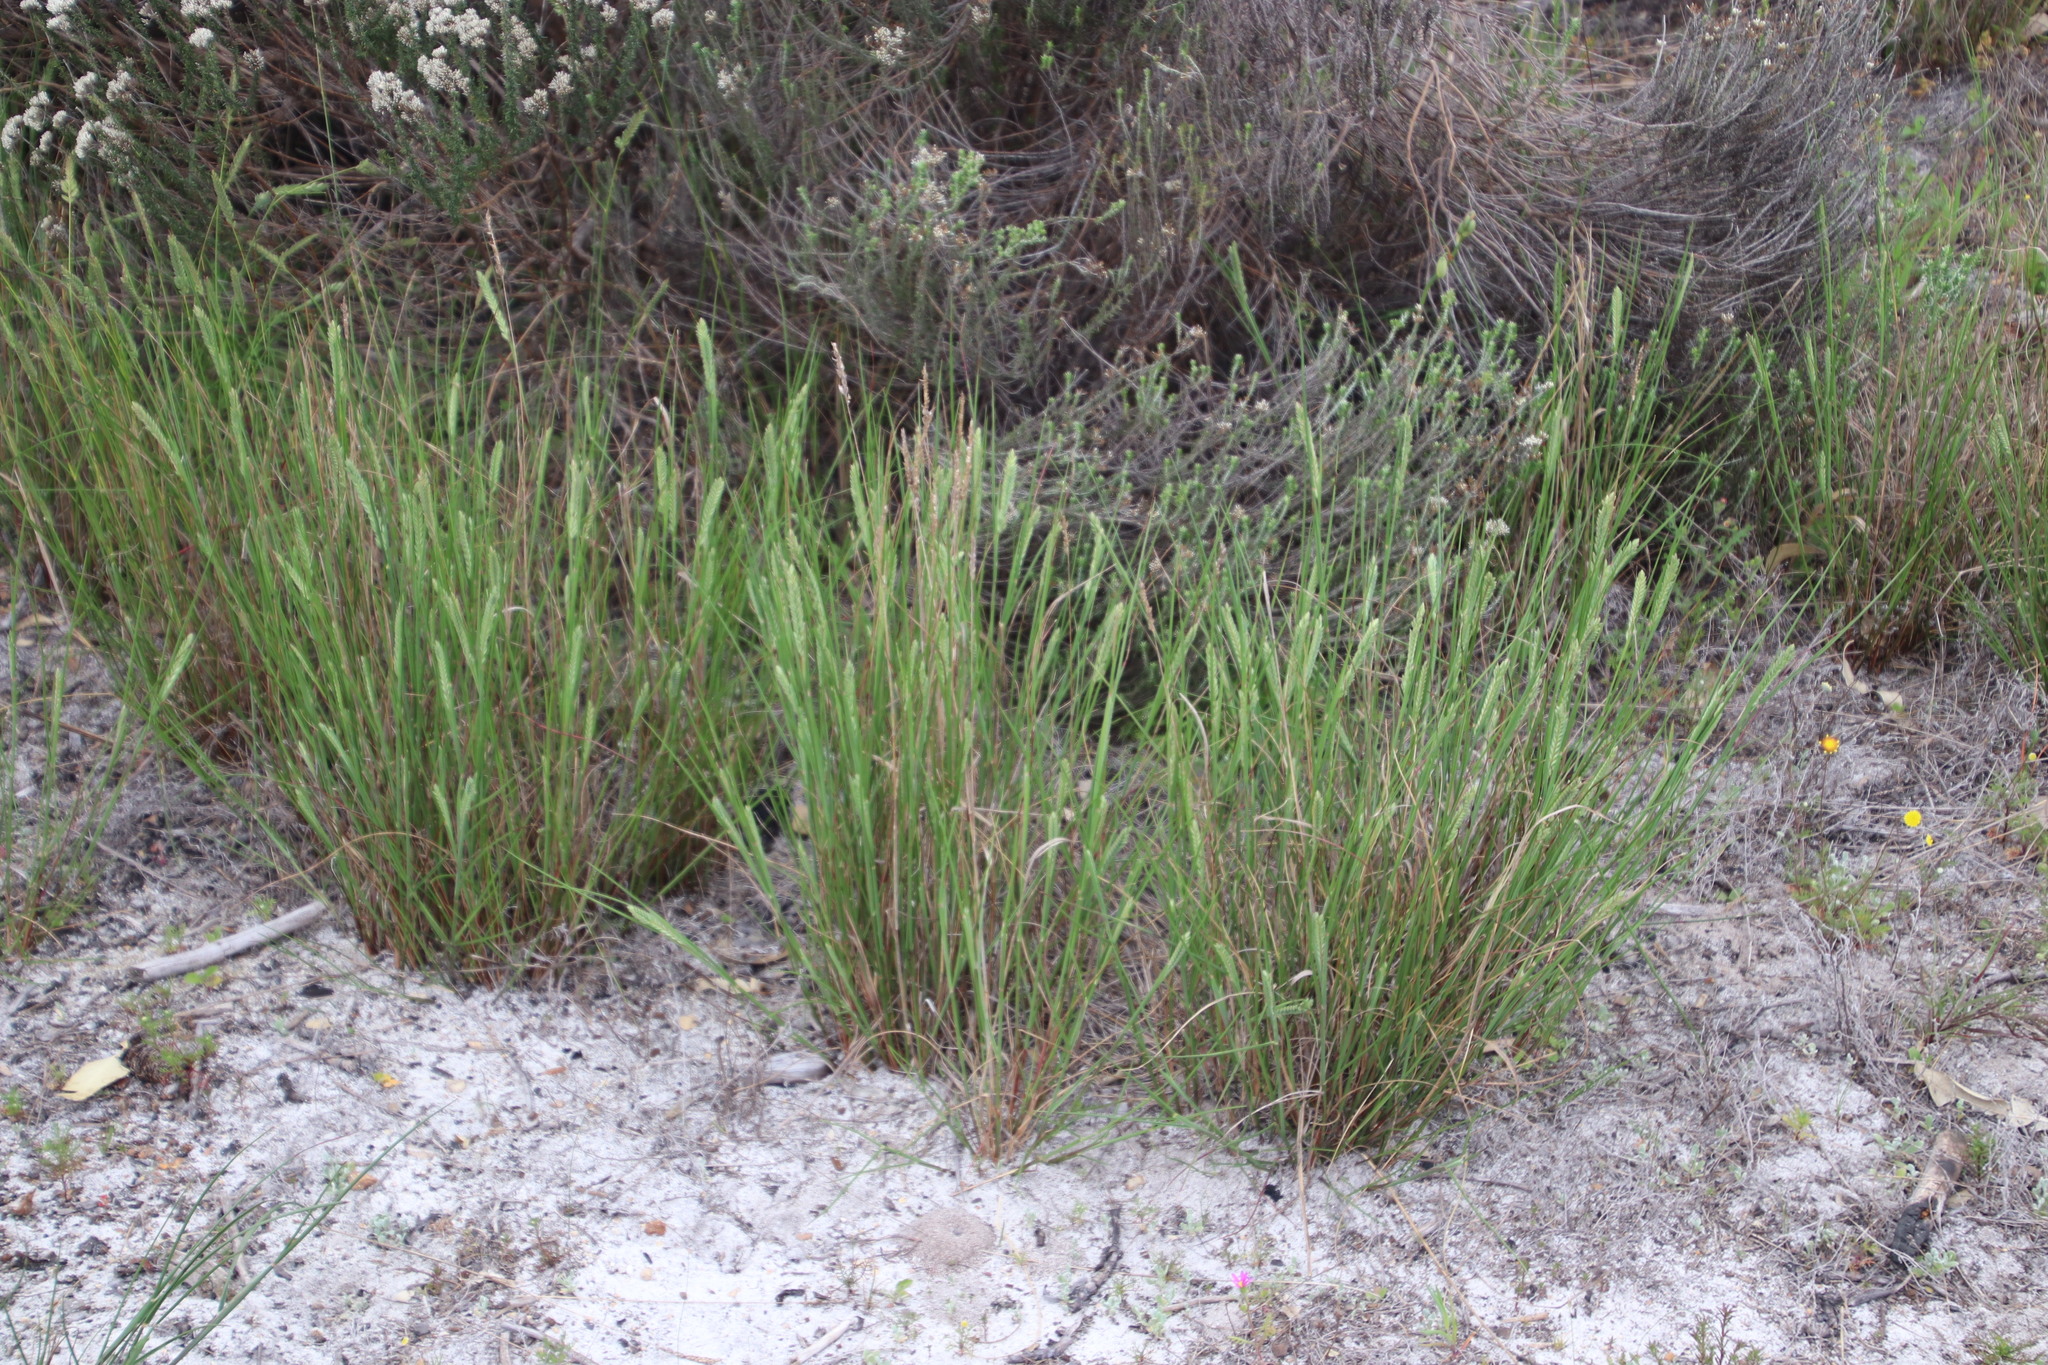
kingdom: Plantae
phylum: Tracheophyta
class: Liliopsida
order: Poales
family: Poaceae
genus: Tribolium
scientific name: Tribolium uniolae
